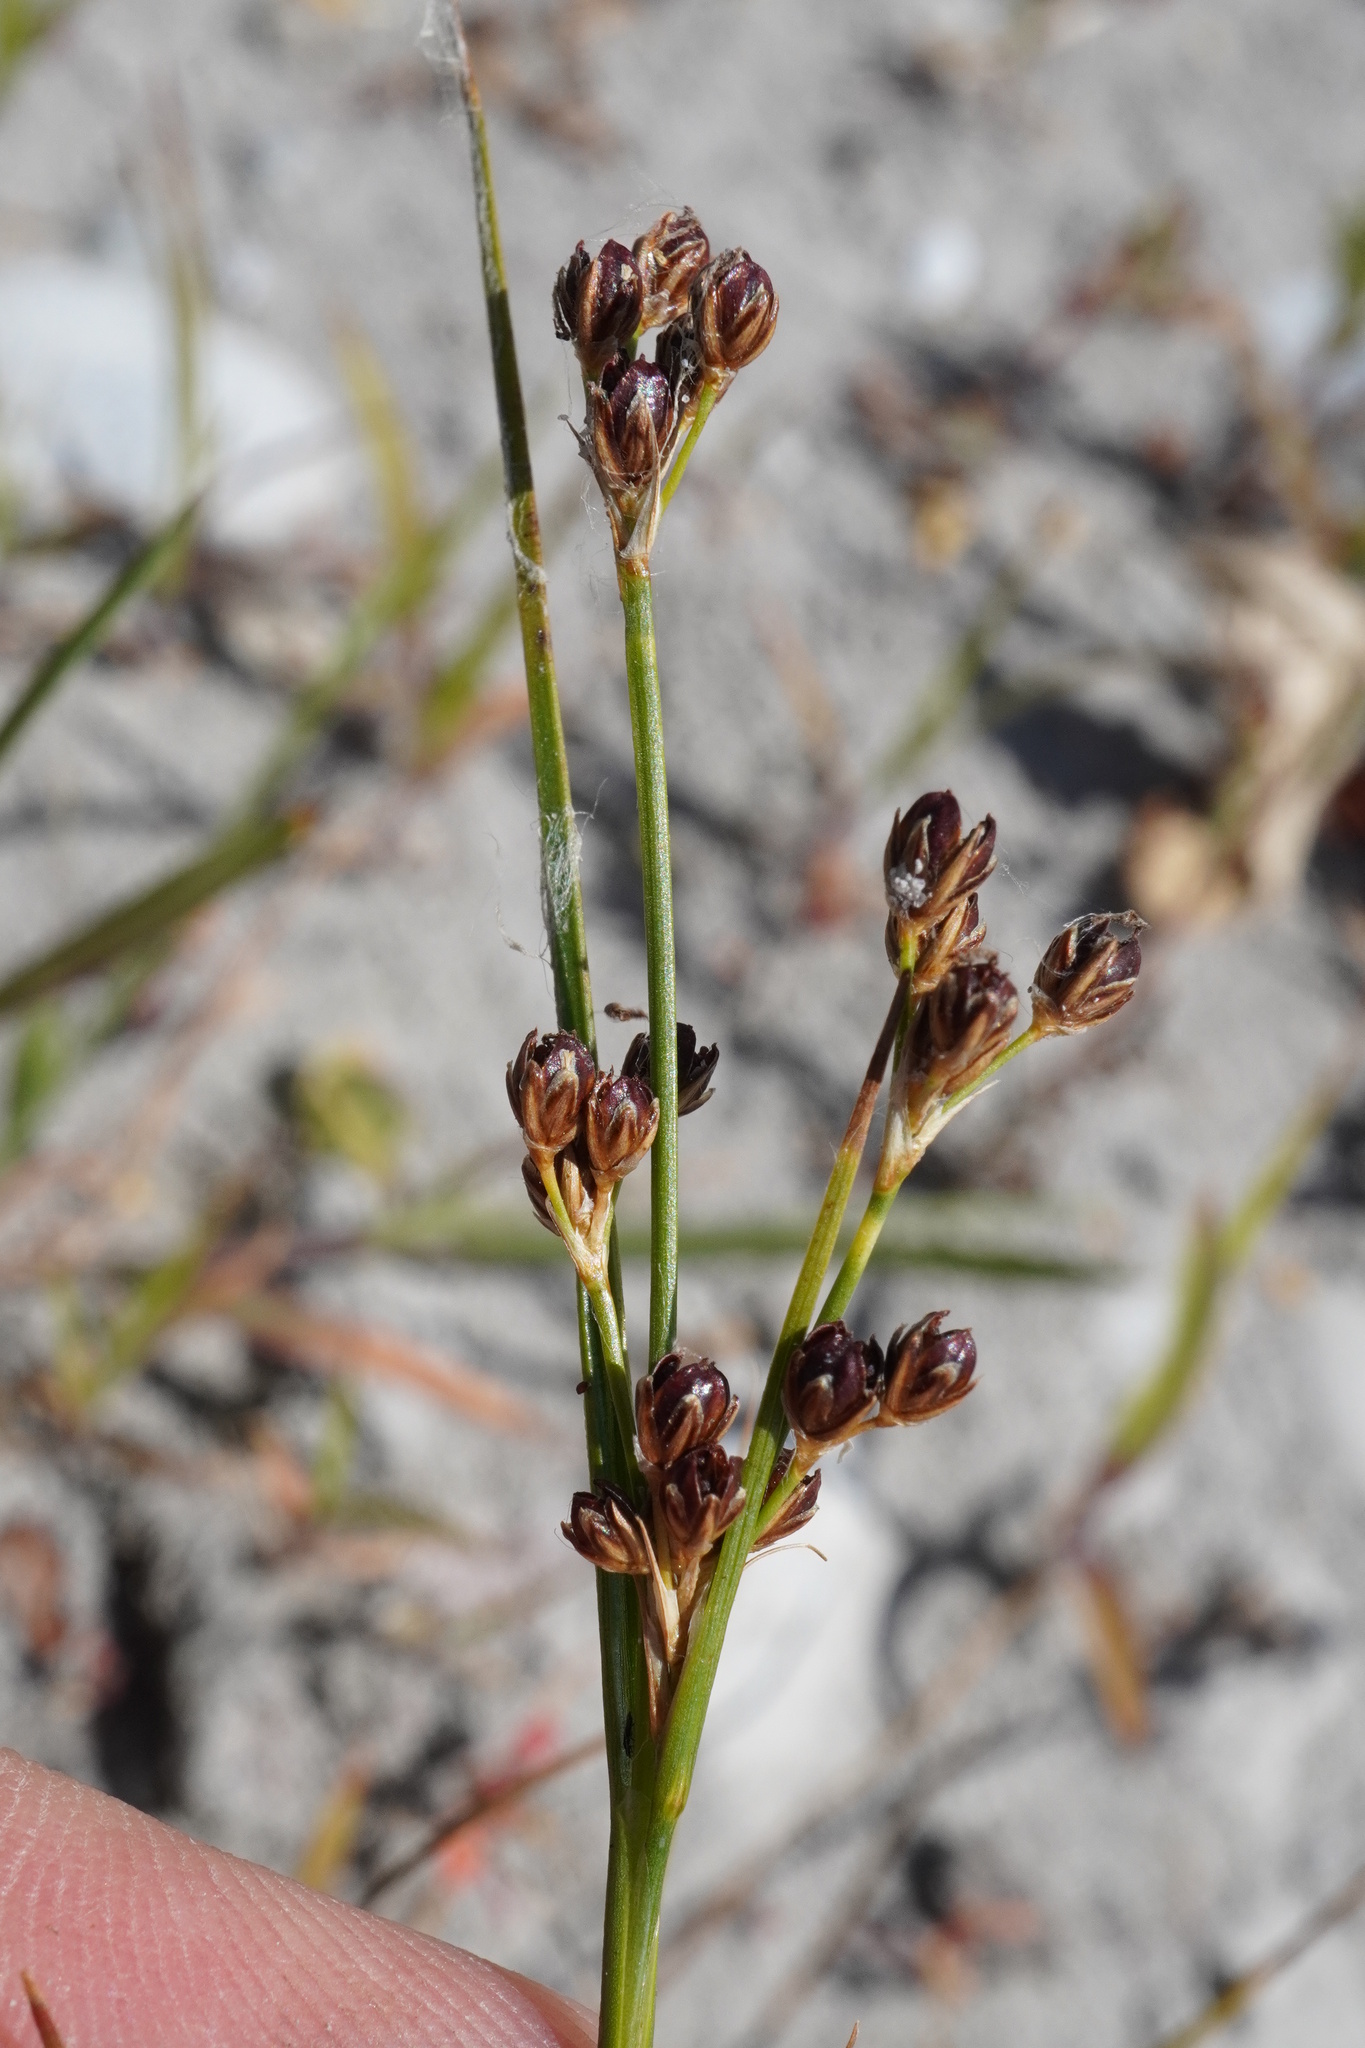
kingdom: Plantae
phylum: Tracheophyta
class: Liliopsida
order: Poales
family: Juncaceae
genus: Juncus
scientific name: Juncus gerardi
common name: Saltmarsh rush
